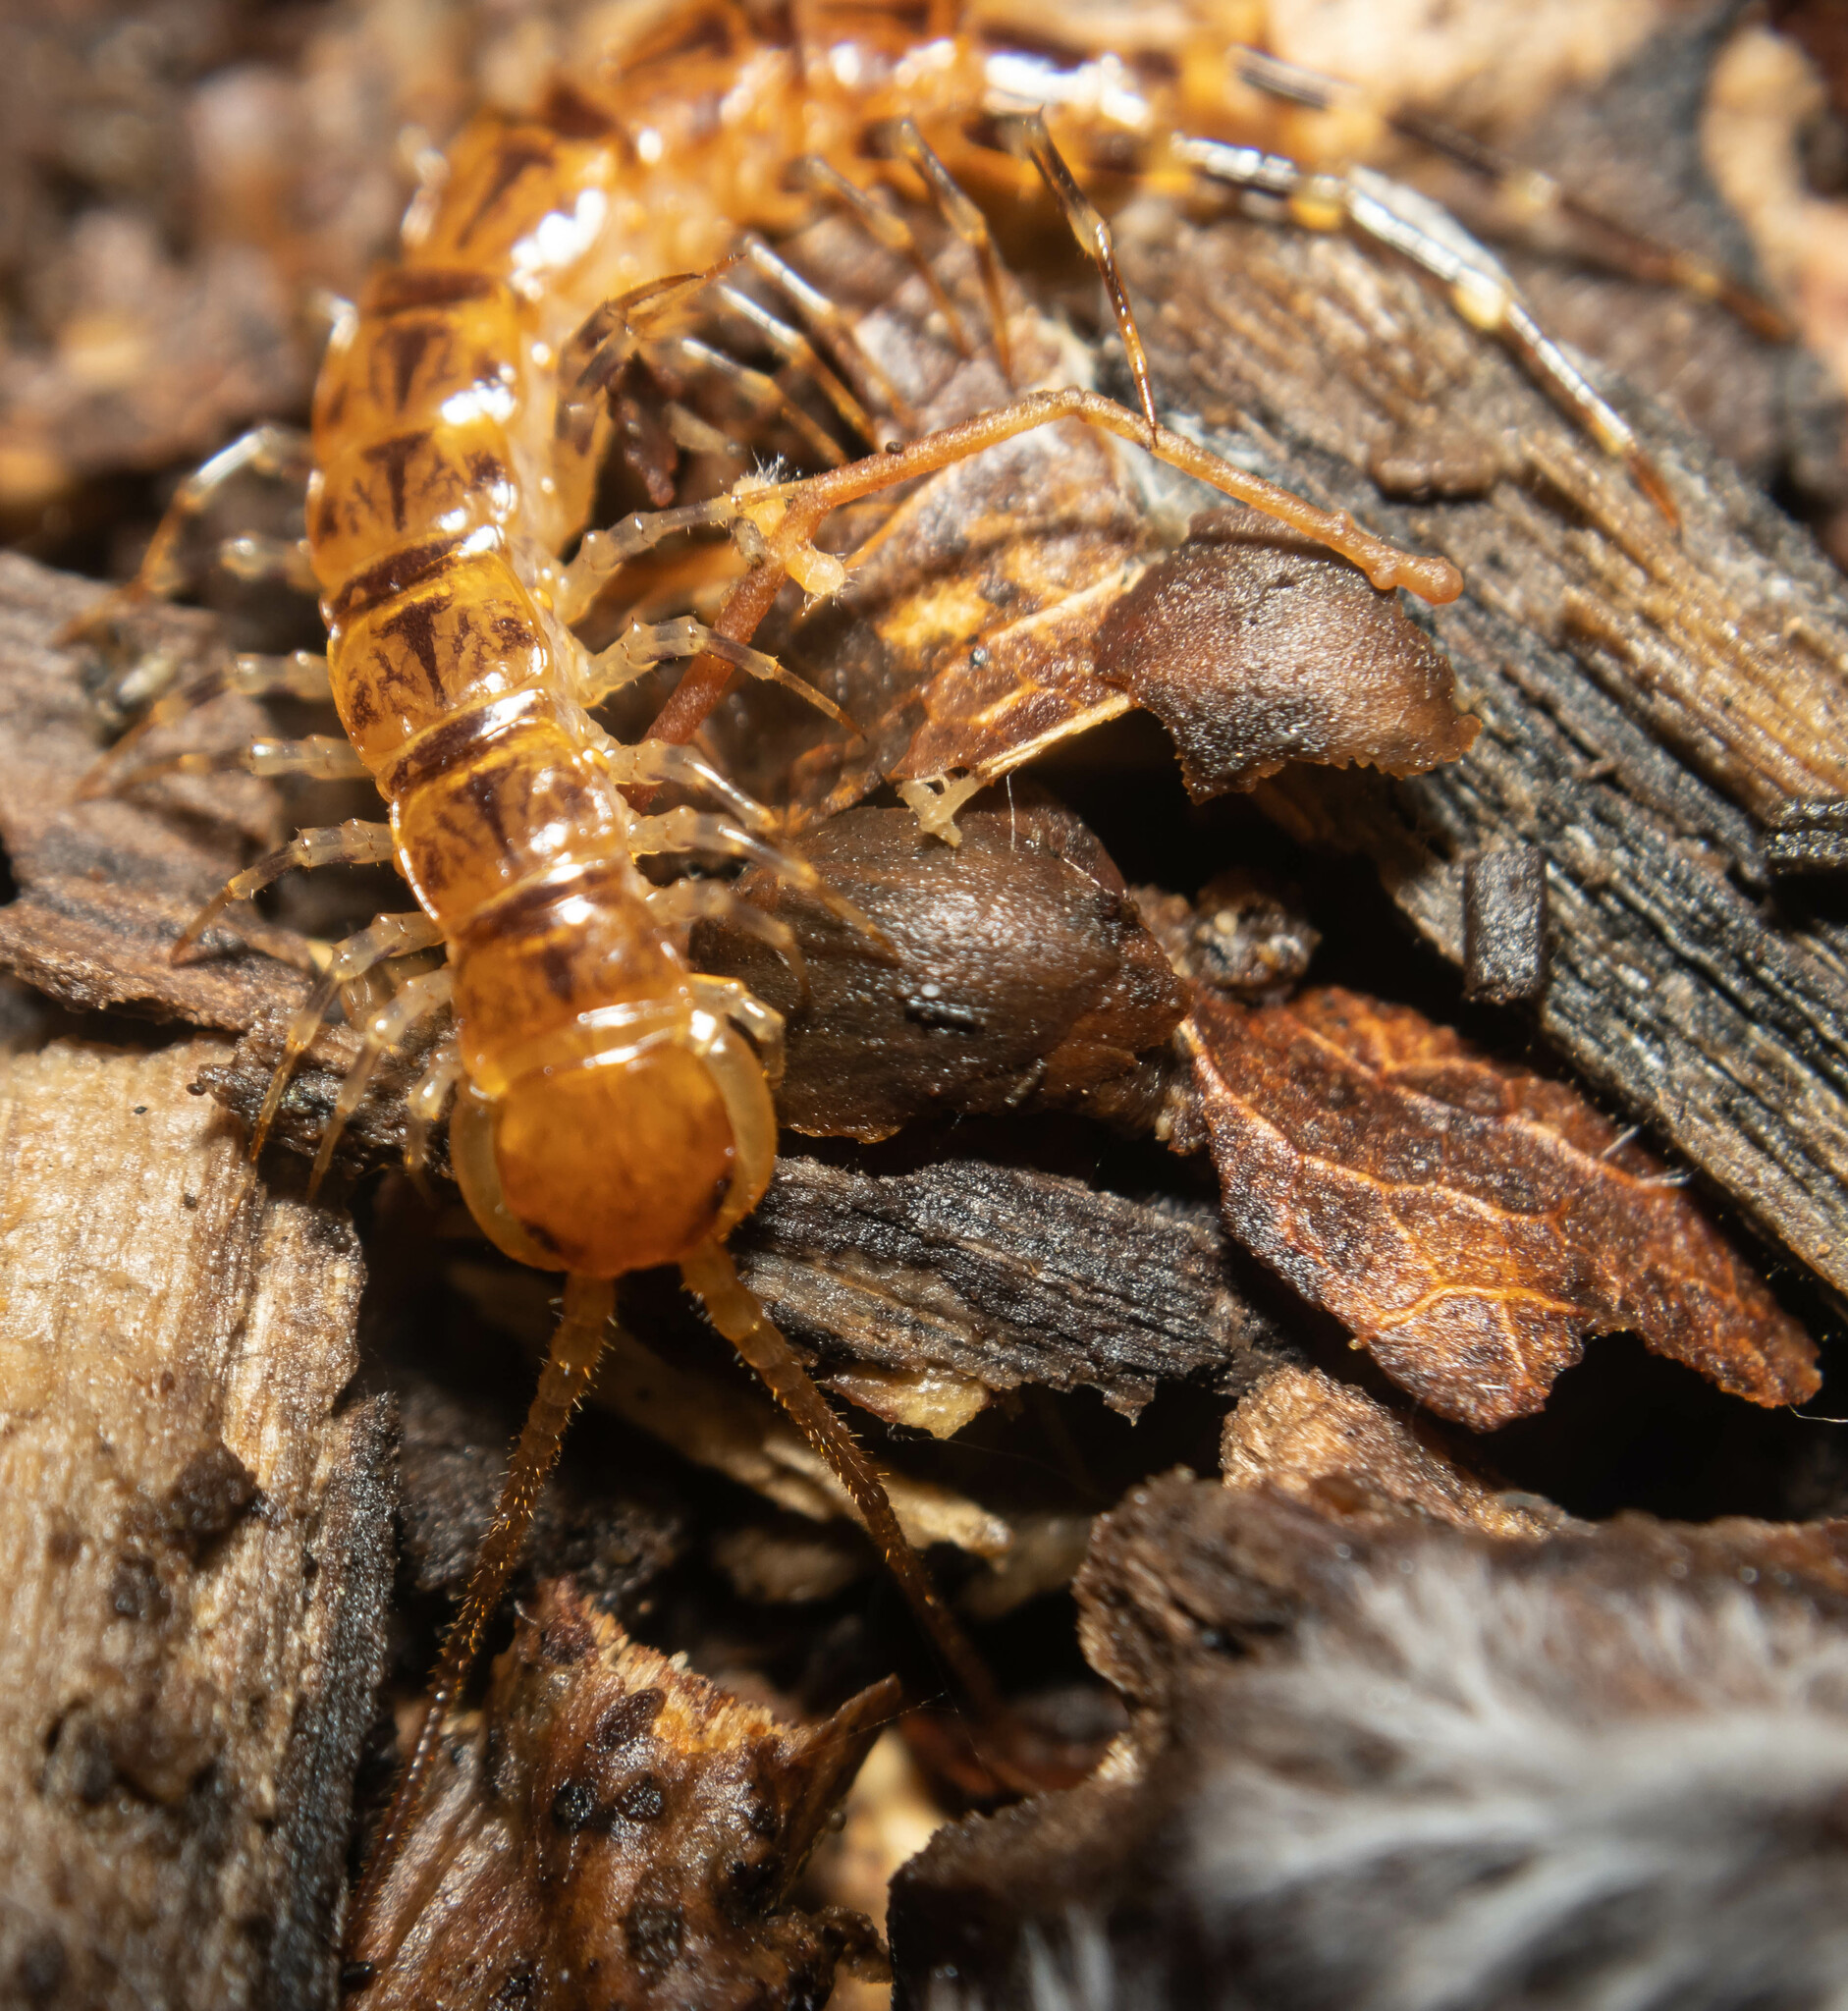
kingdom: Animalia
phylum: Arthropoda
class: Chilopoda
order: Lithobiomorpha
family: Lithobiidae
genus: Lithobius
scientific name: Lithobius variegatus
